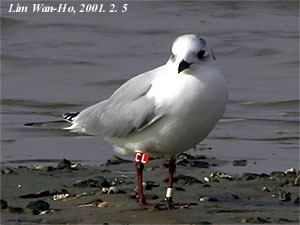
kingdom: Animalia
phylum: Chordata
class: Aves
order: Charadriiformes
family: Laridae
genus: Chroicocephalus
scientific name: Chroicocephalus saundersi
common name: Saunders's gull
